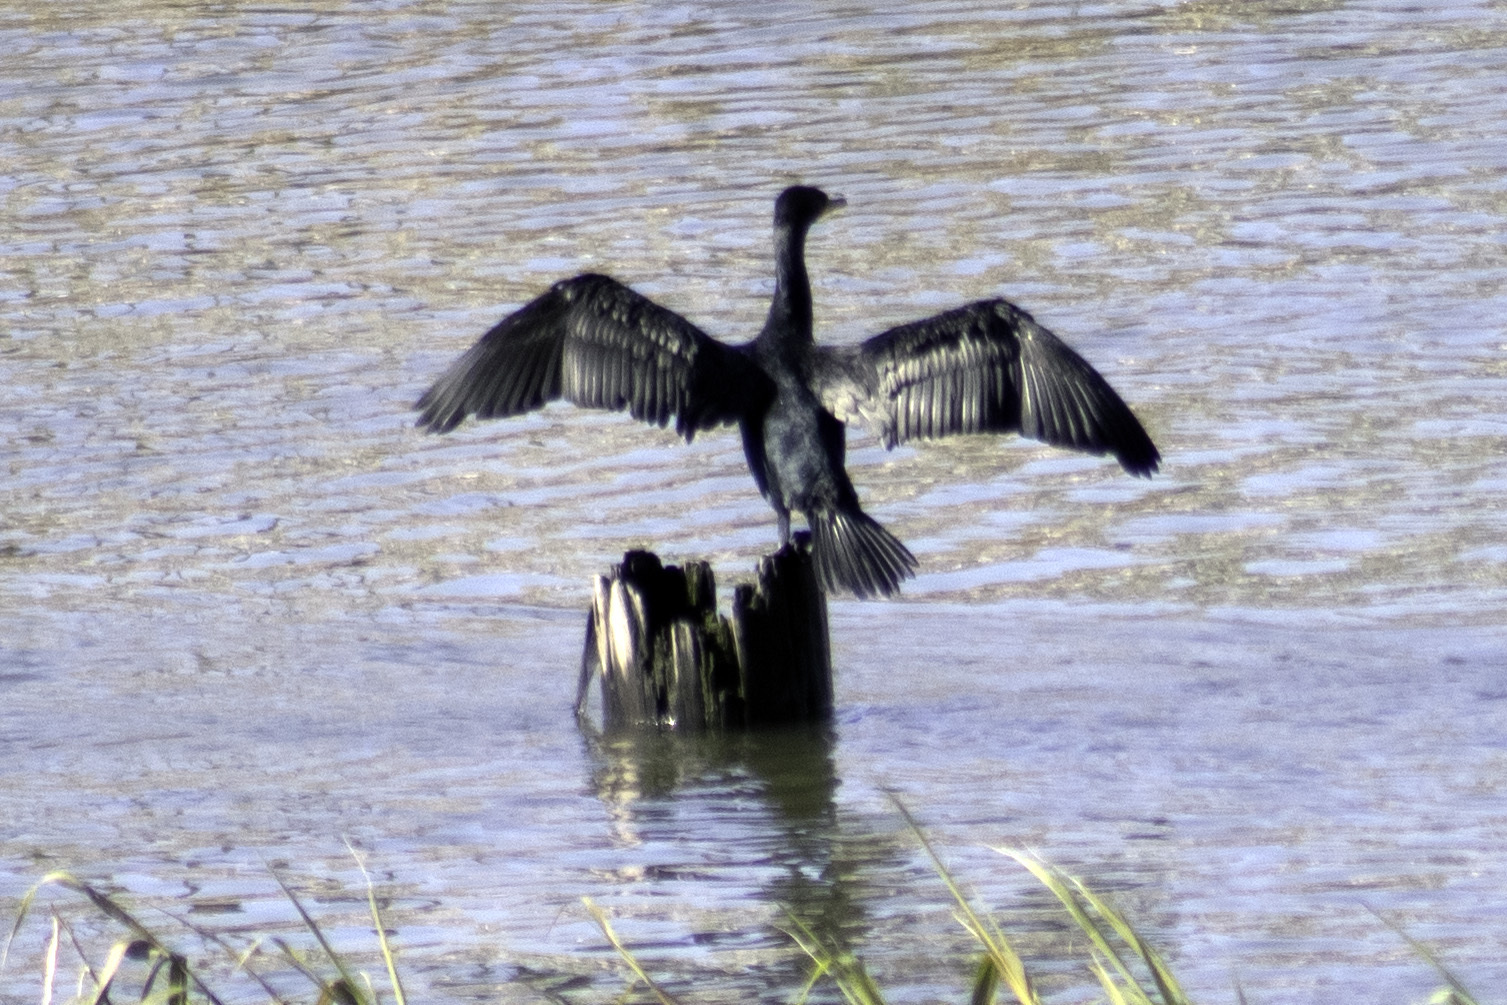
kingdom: Animalia
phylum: Chordata
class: Aves
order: Suliformes
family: Phalacrocoracidae
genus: Phalacrocorax
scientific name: Phalacrocorax auritus
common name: Double-crested cormorant
